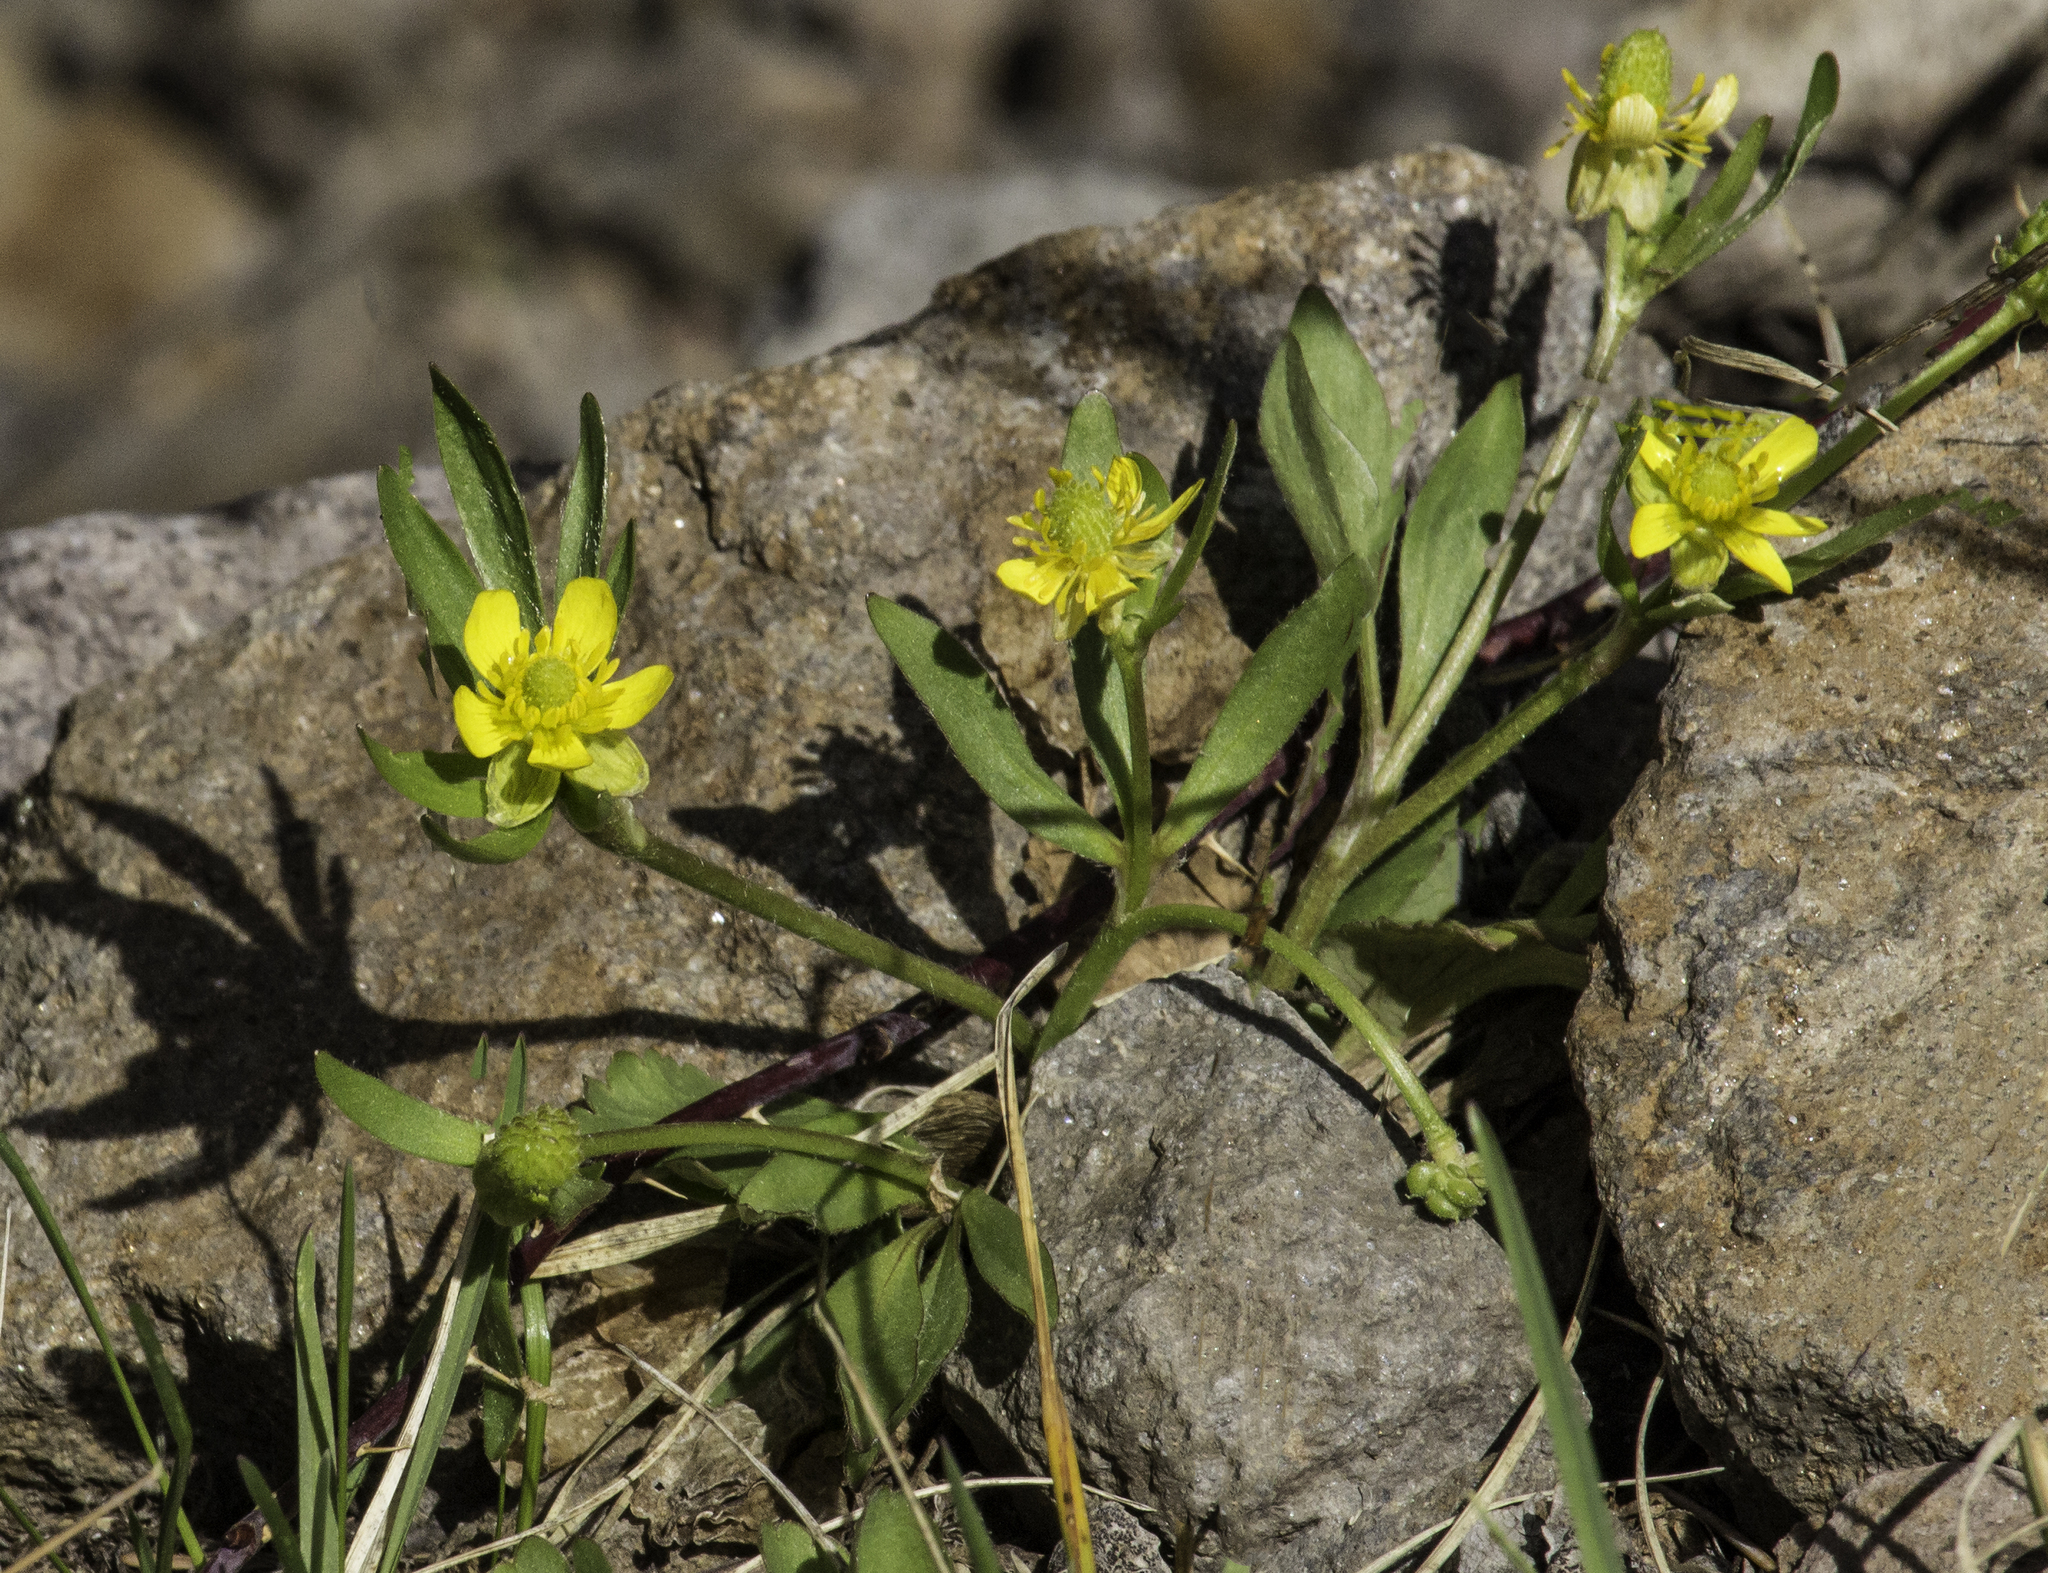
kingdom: Plantae
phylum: Tracheophyta
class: Magnoliopsida
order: Ranunculales
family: Ranunculaceae
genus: Ranunculus
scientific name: Ranunculus inamoenus
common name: Graceful buttercup
